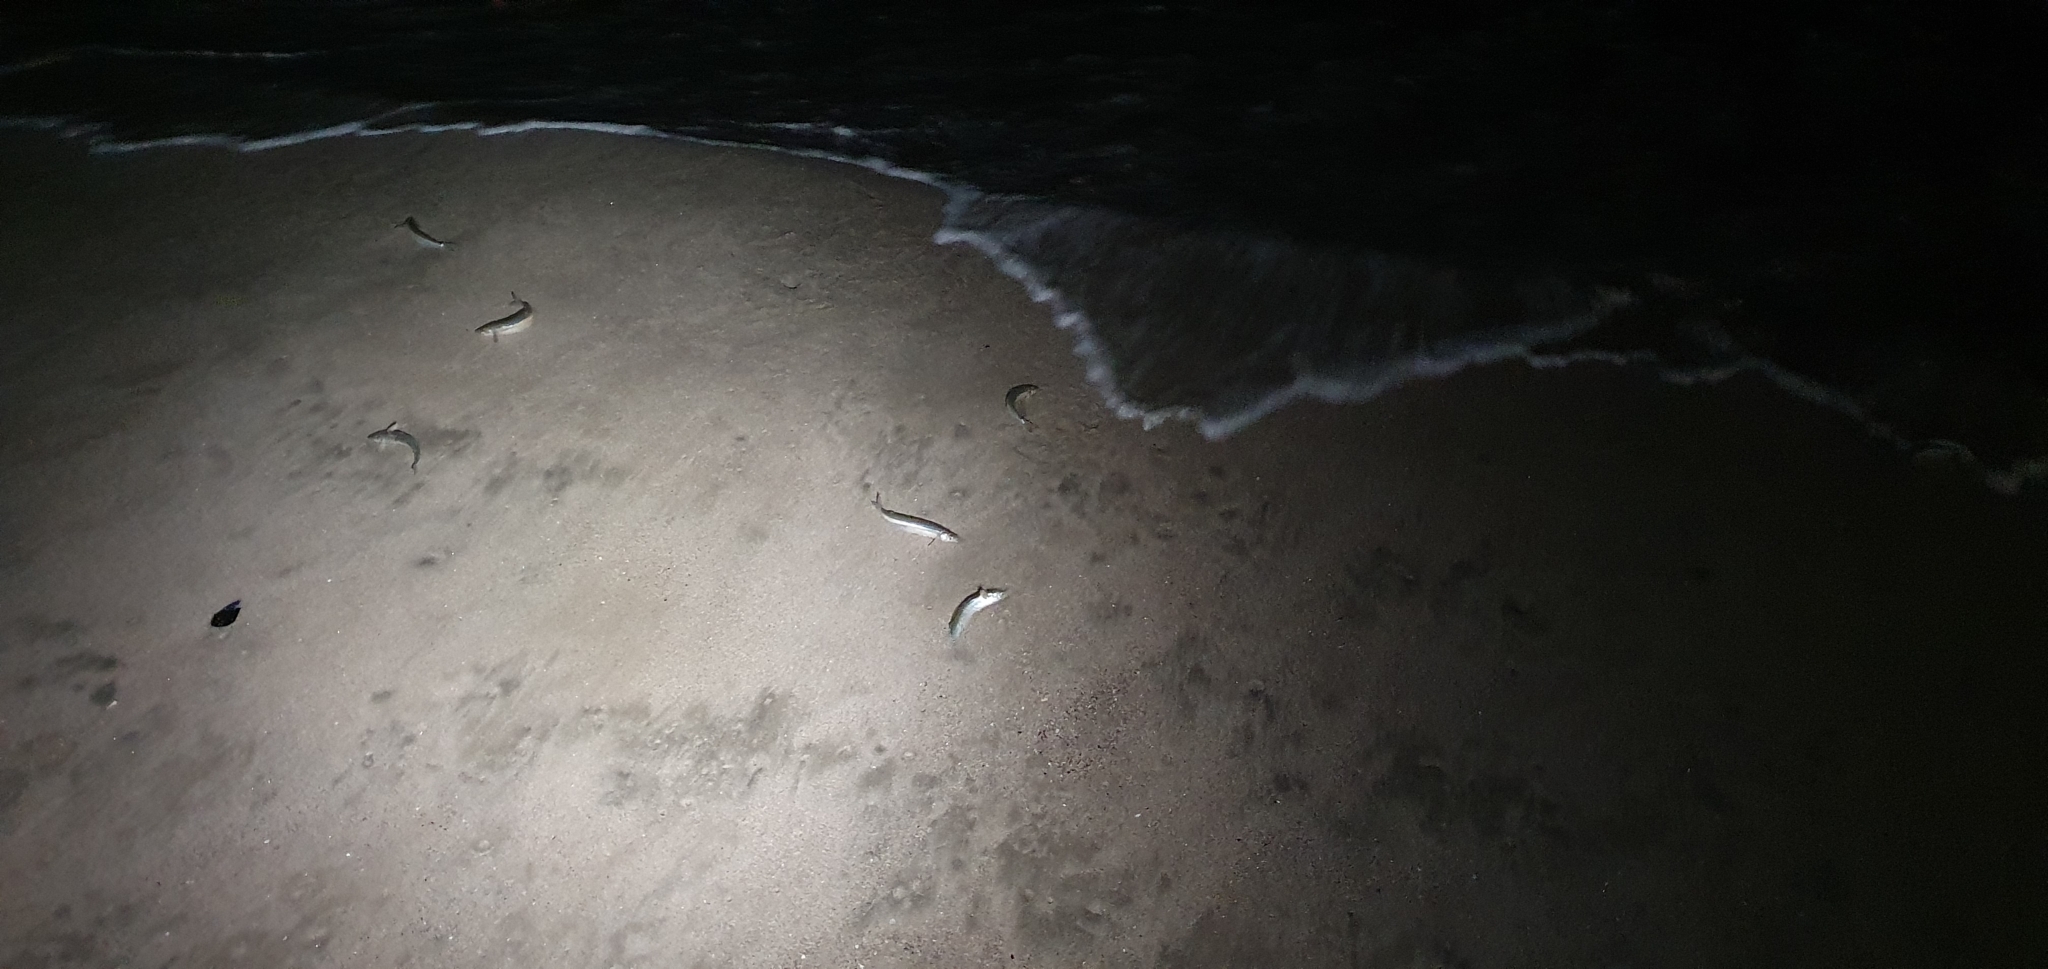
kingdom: Animalia
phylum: Chordata
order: Atheriniformes
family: Atherinopsidae
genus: Leuresthes
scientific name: Leuresthes tenuis
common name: California grunion
